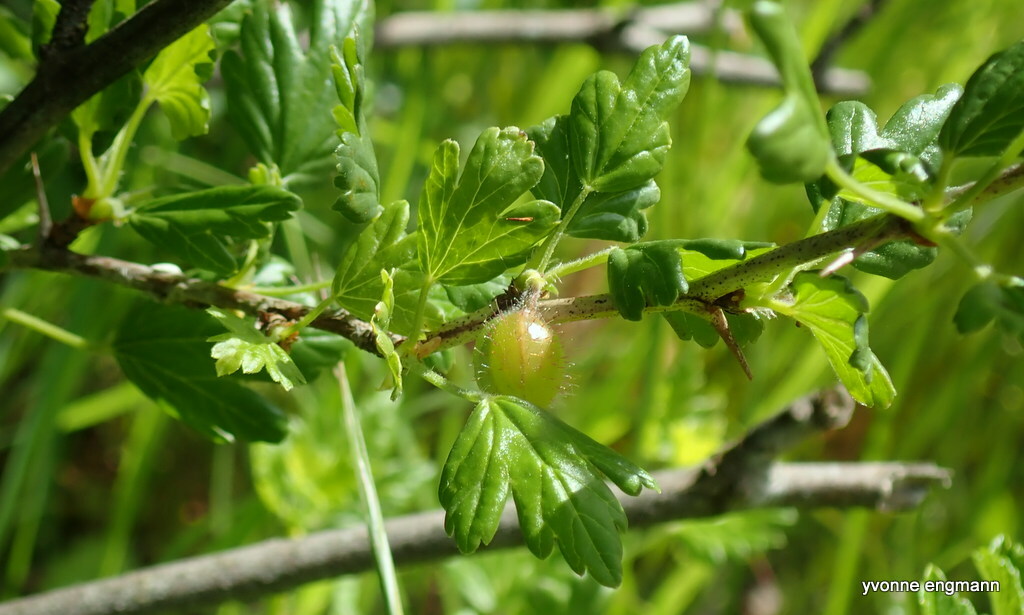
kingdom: Plantae
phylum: Tracheophyta
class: Magnoliopsida
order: Saxifragales
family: Grossulariaceae
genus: Ribes
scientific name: Ribes uva-crispa
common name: Gooseberry
